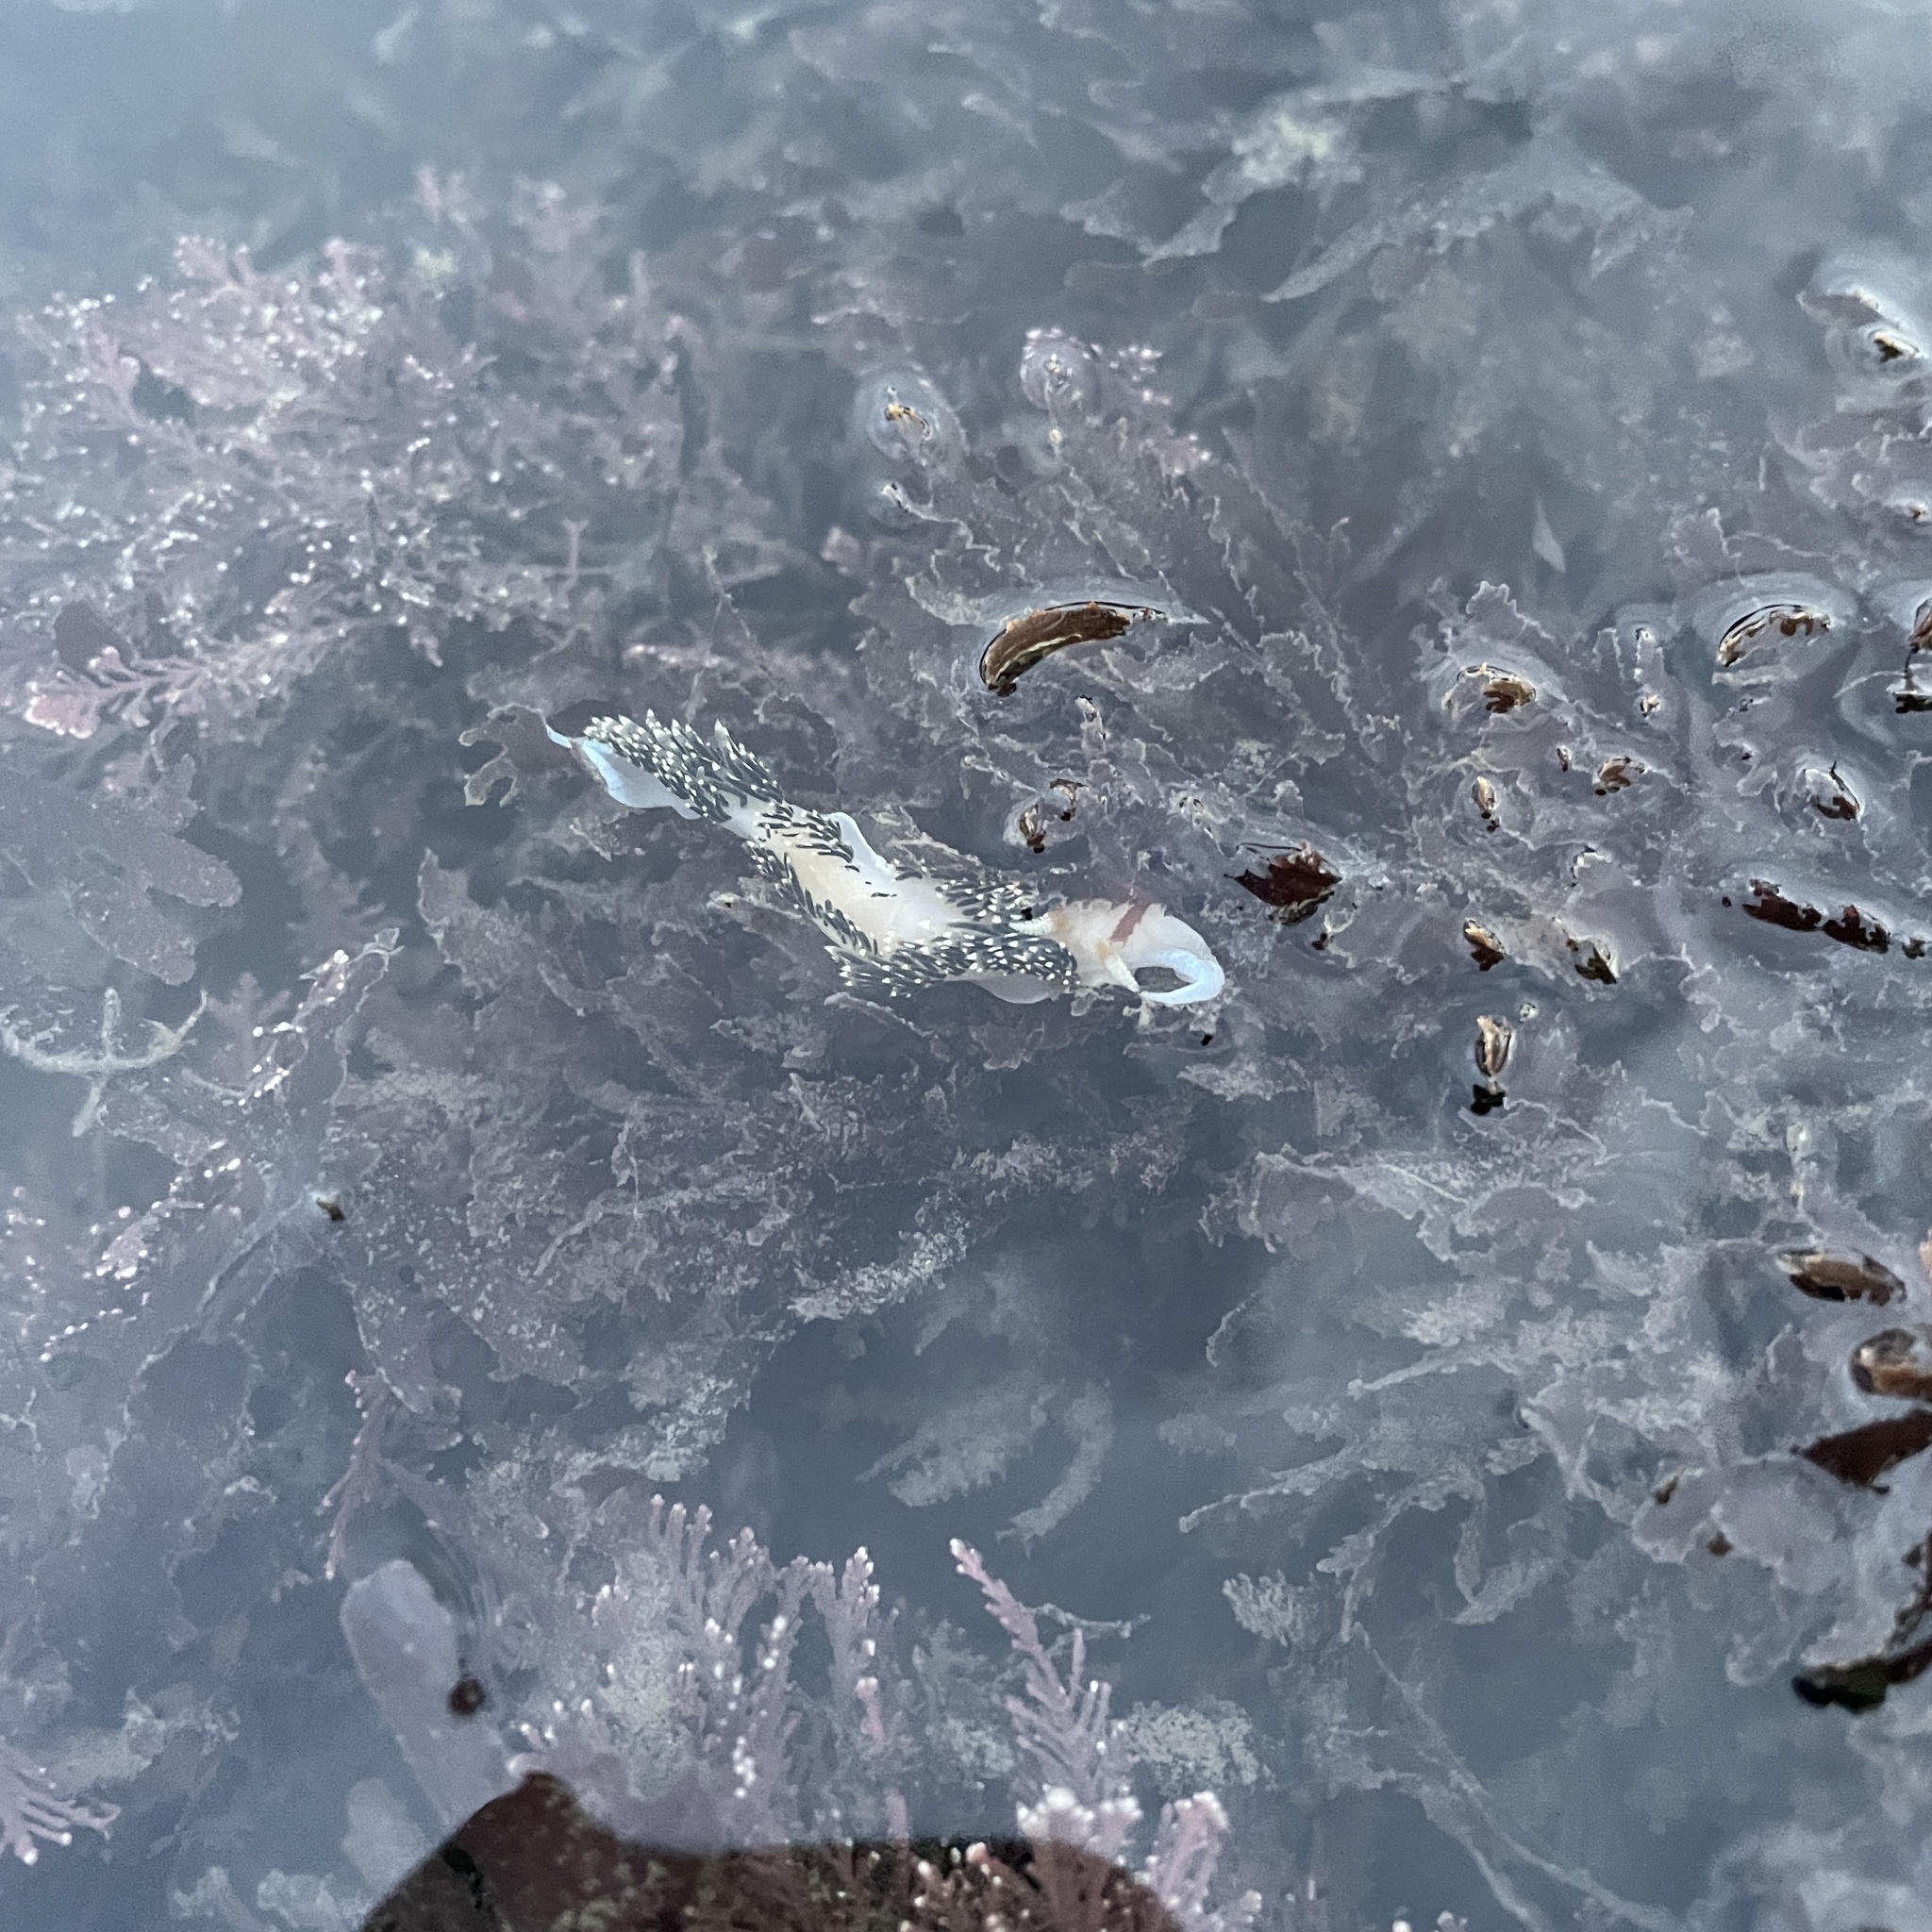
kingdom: Animalia
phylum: Mollusca
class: Gastropoda
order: Nudibranchia
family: Facelinidae
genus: Phidiana
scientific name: Phidiana hiltoni
